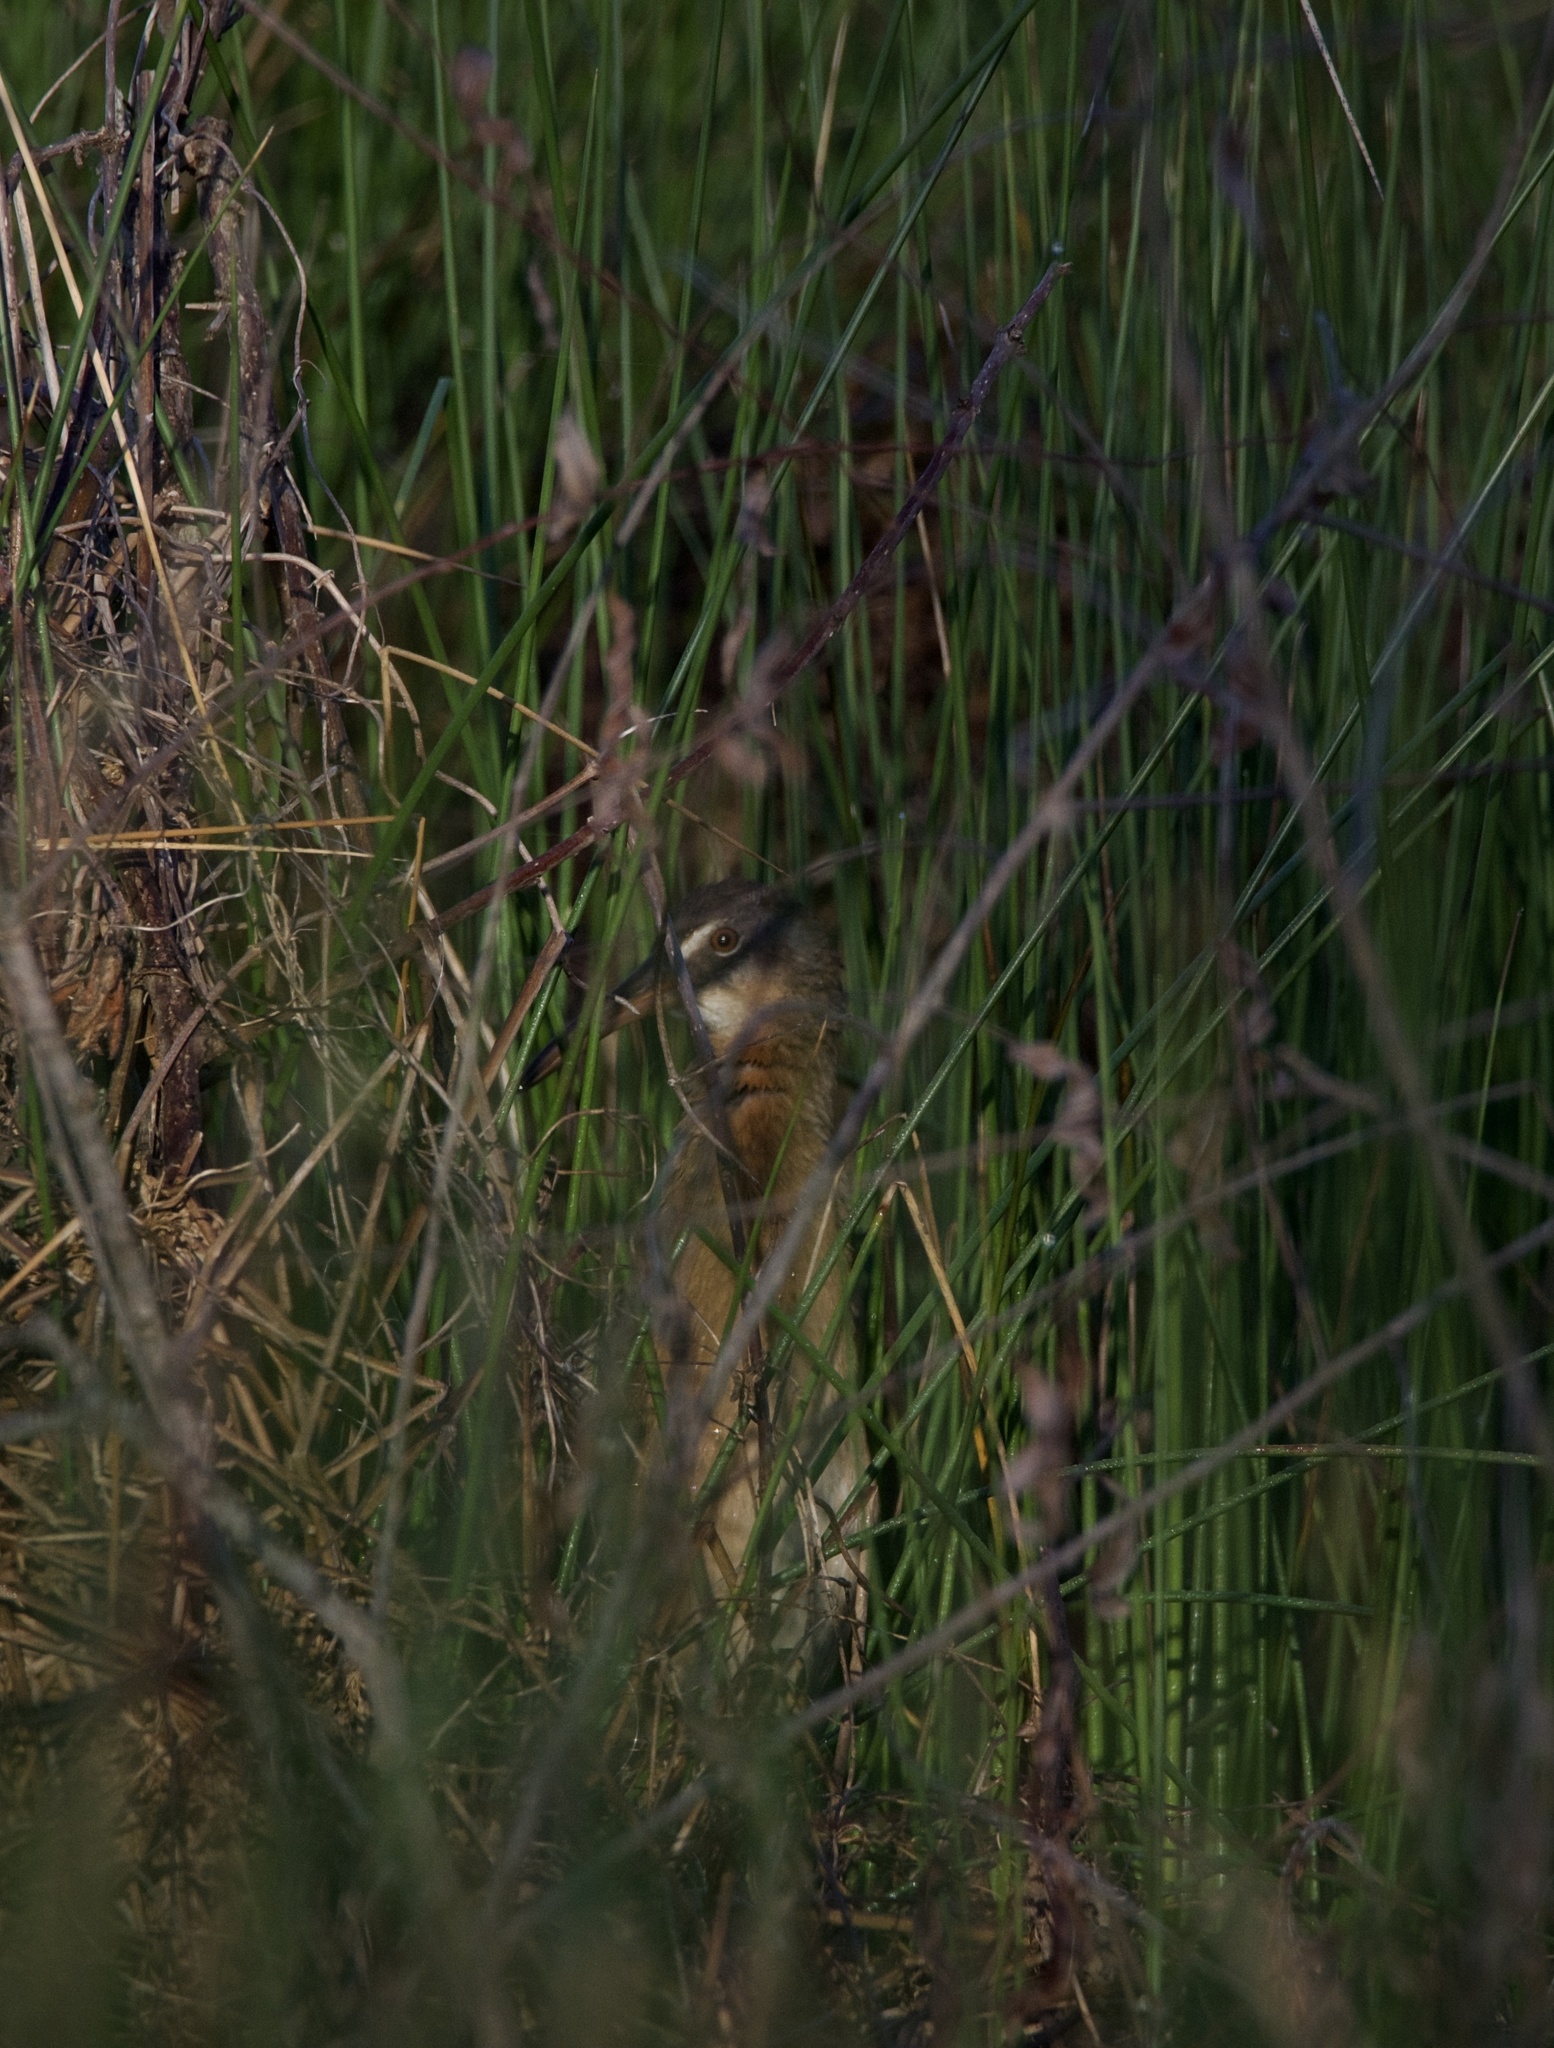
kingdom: Animalia
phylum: Chordata
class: Aves
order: Gruiformes
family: Rallidae
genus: Rallus
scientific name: Rallus elegans
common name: King rail
